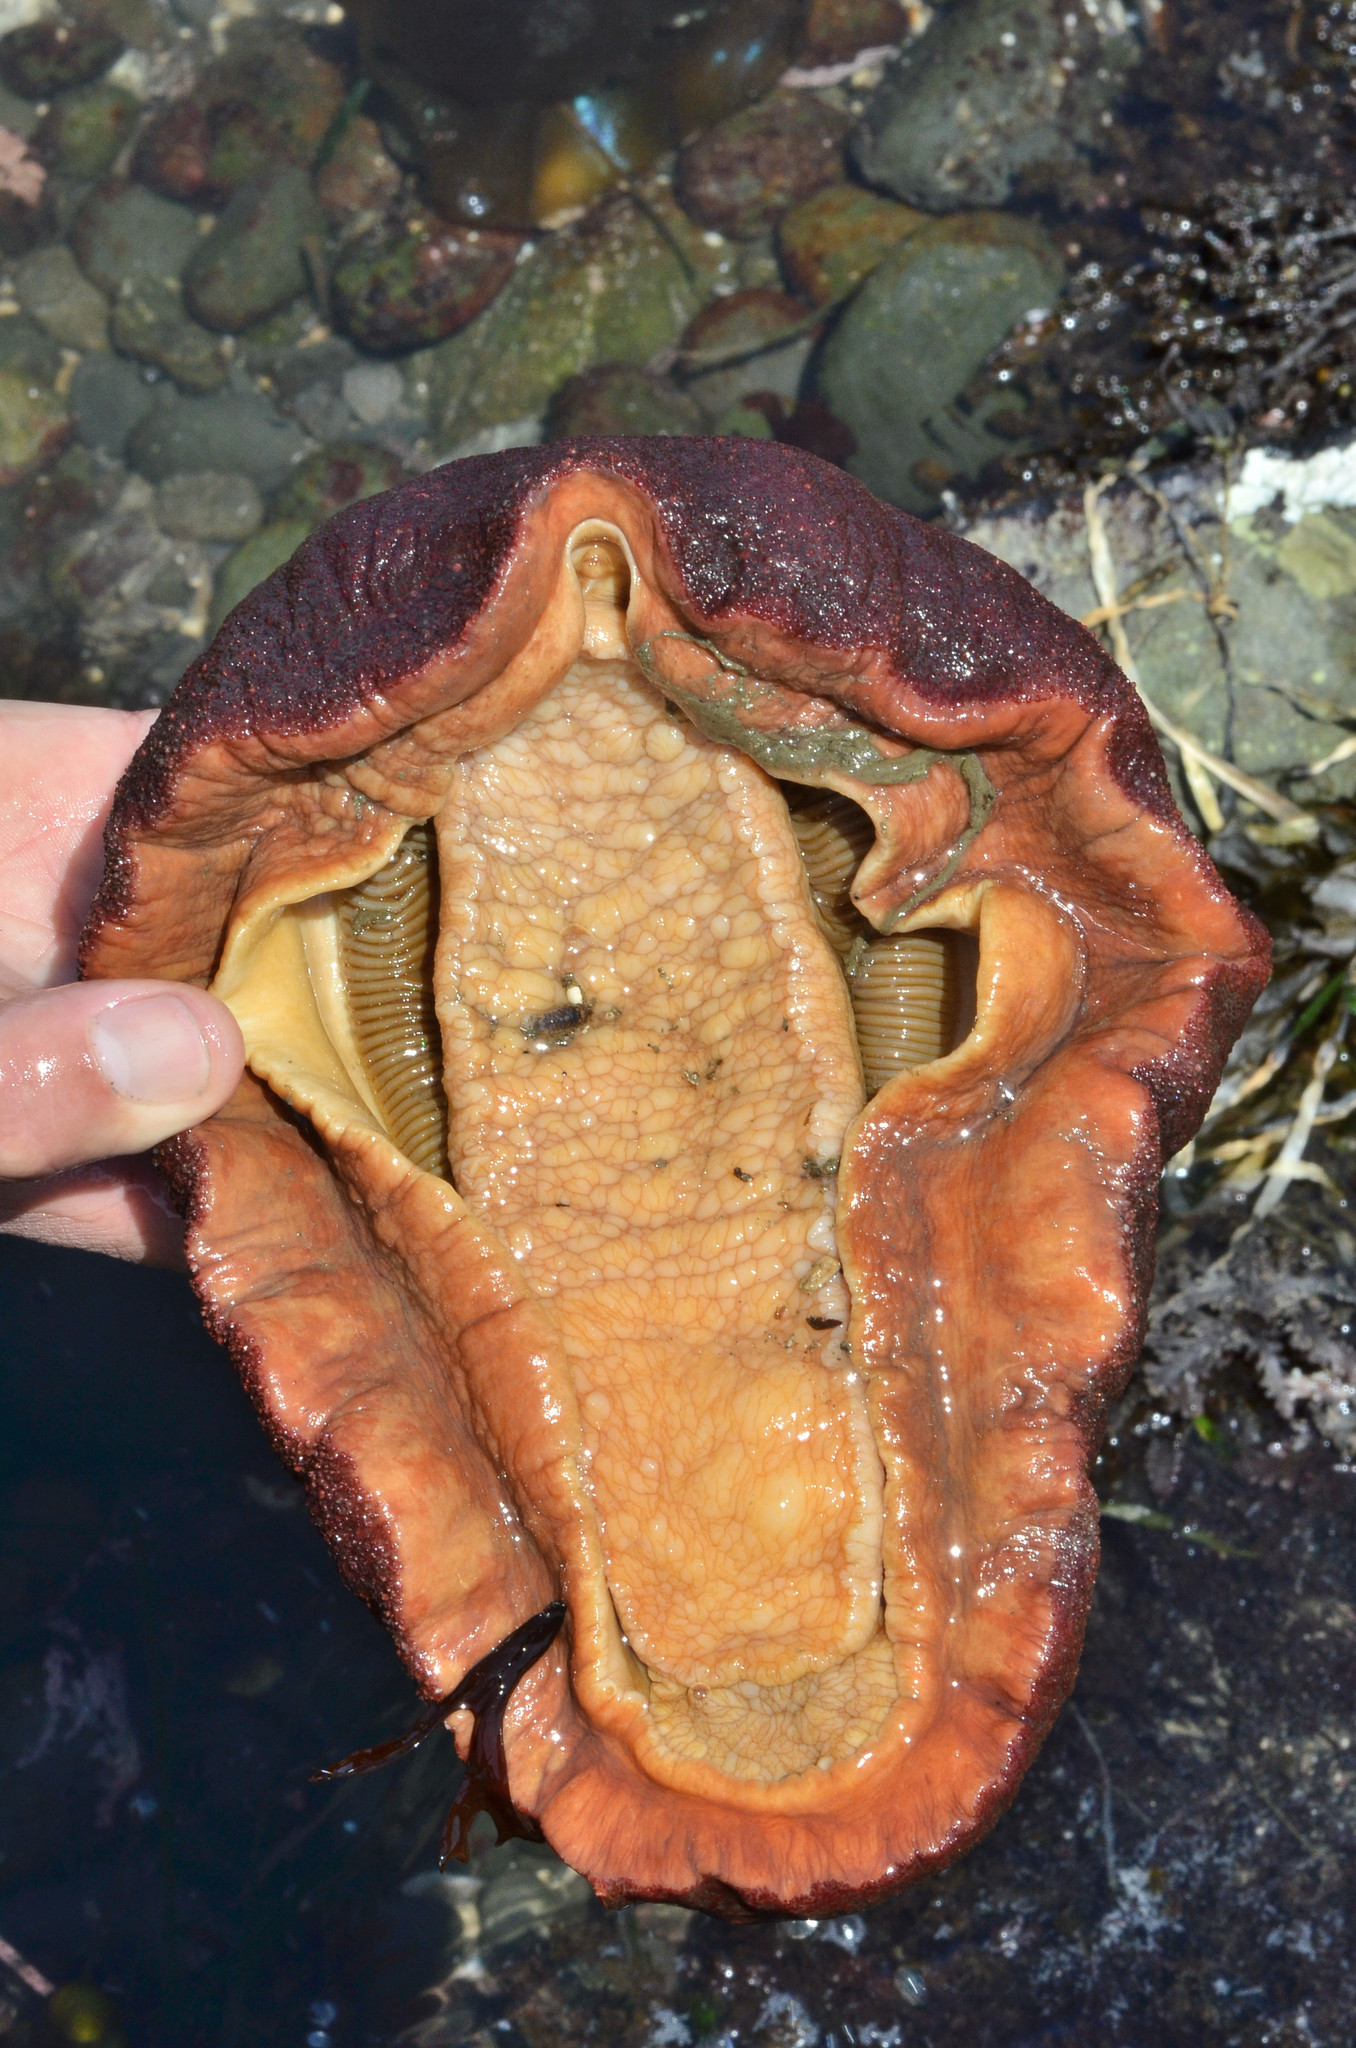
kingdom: Animalia
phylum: Mollusca
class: Polyplacophora
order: Chitonida
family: Acanthochitonidae
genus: Cryptochiton
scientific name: Cryptochiton stelleri
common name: Giant pacific chiton
